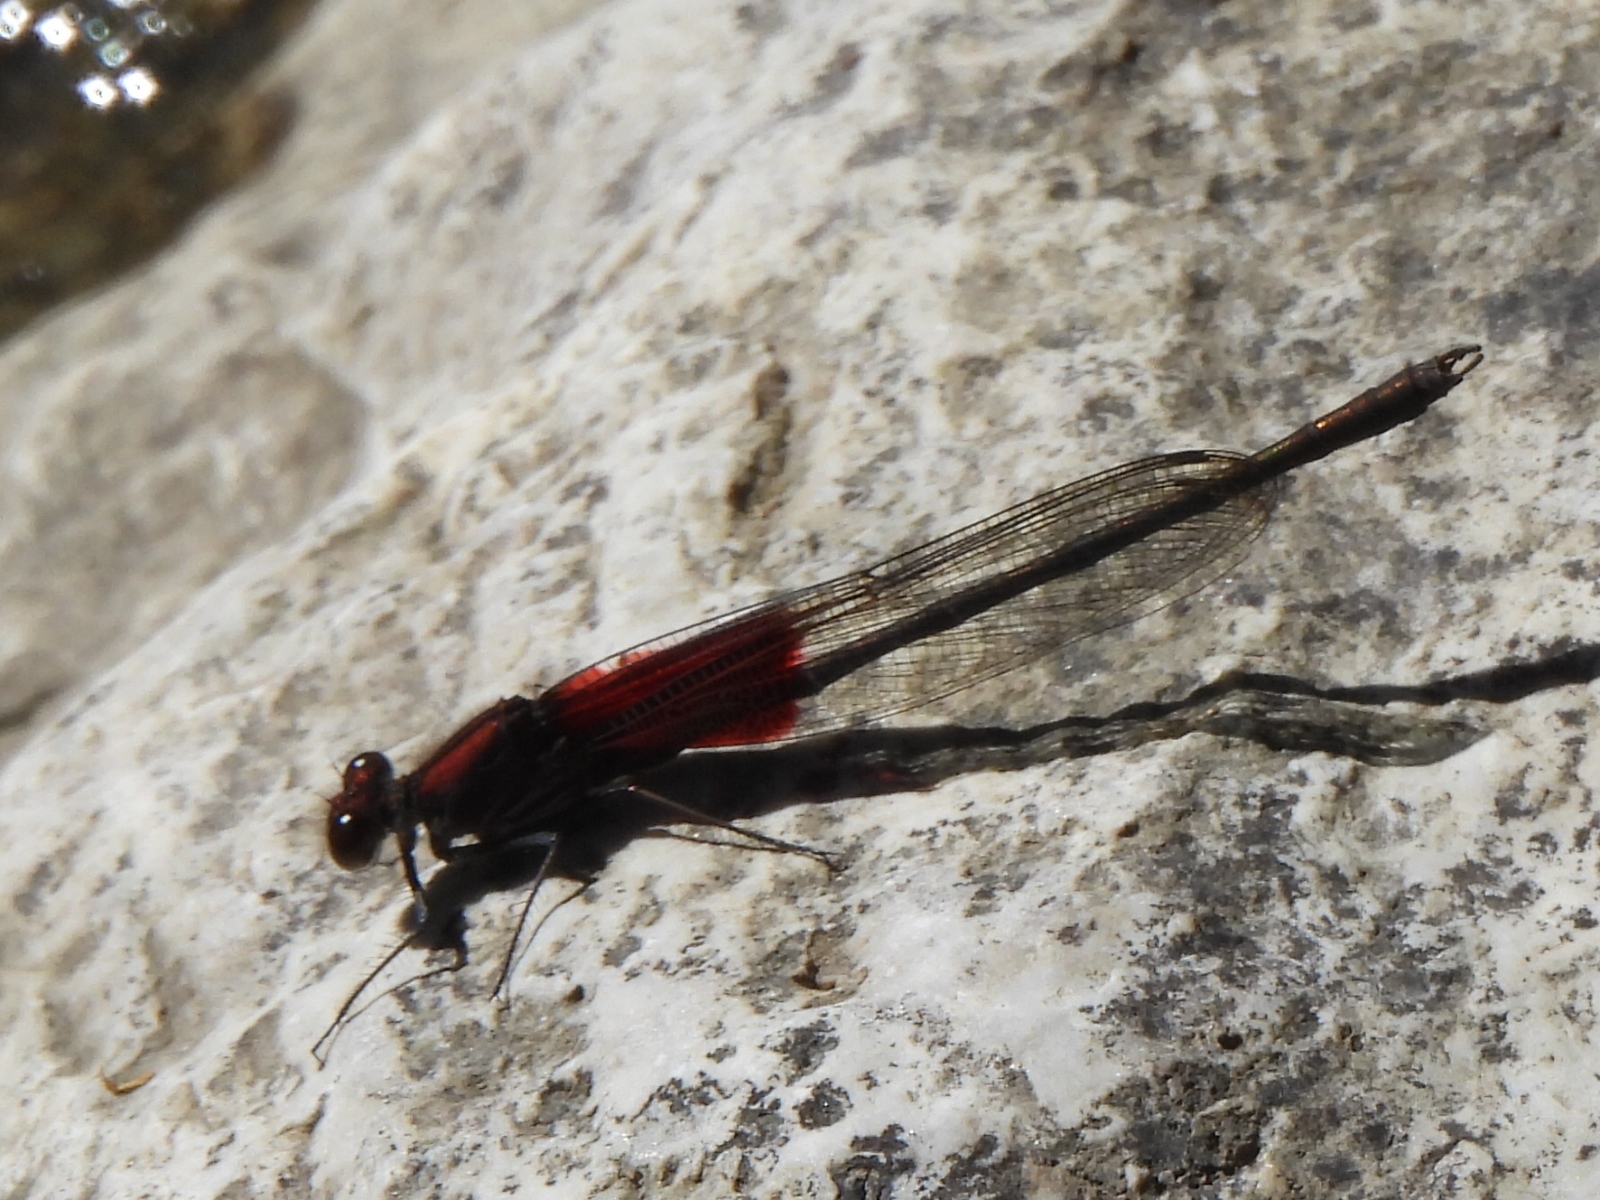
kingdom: Animalia
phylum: Arthropoda
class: Insecta
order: Odonata
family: Calopterygidae
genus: Hetaerina
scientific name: Hetaerina americana
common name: American rubyspot
